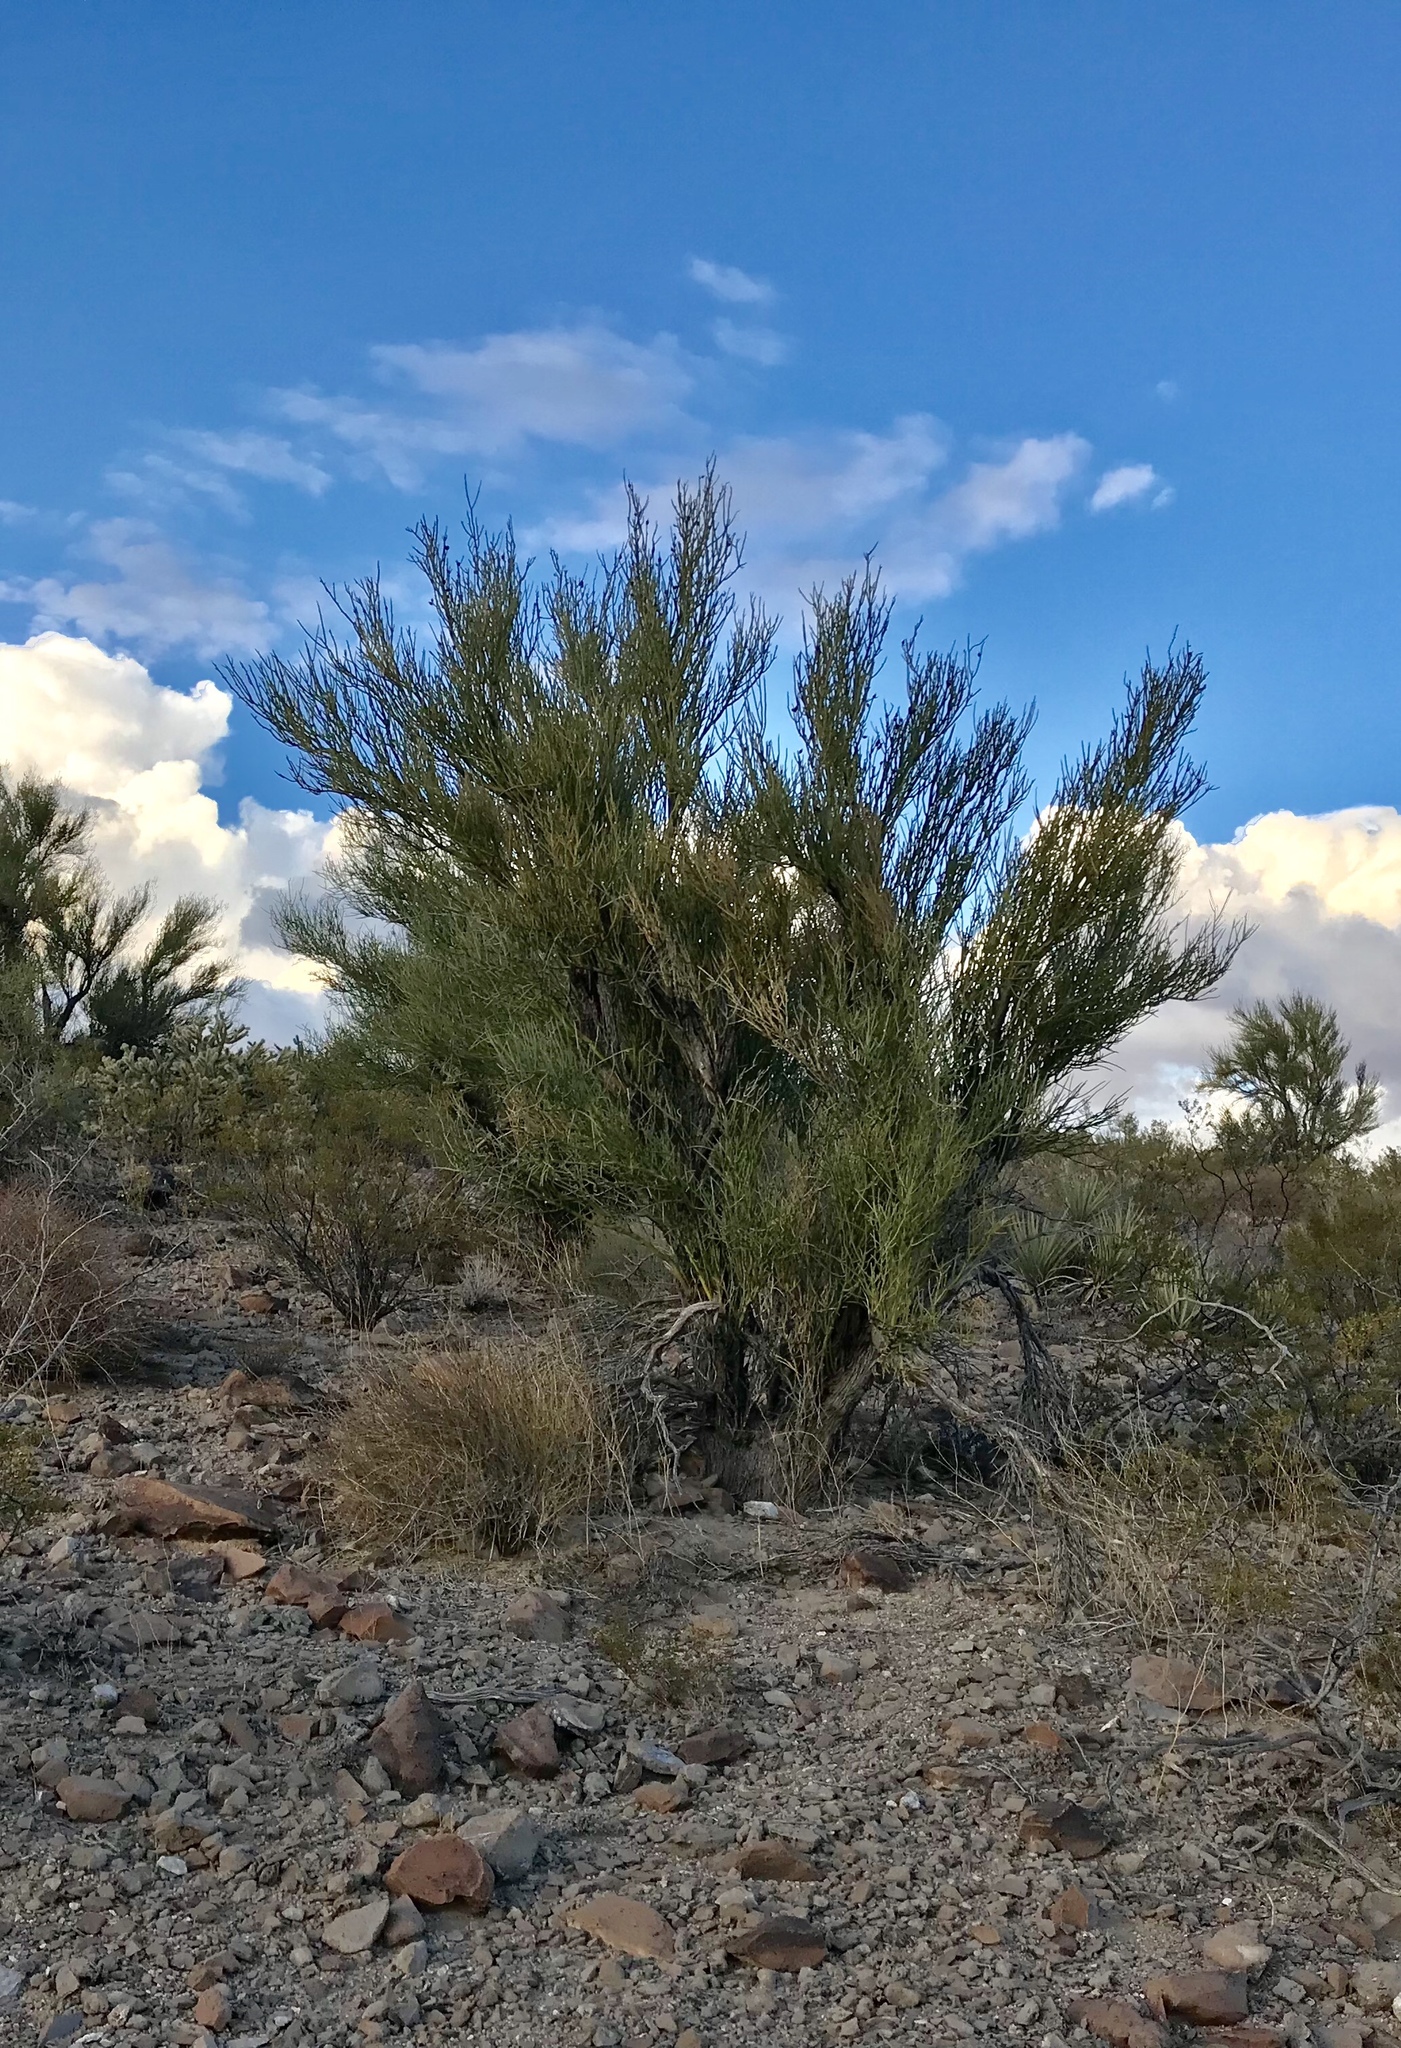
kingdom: Plantae
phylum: Tracheophyta
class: Magnoliopsida
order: Celastrales
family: Celastraceae
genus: Canotia
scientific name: Canotia holacantha
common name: Crucifixion thorns
